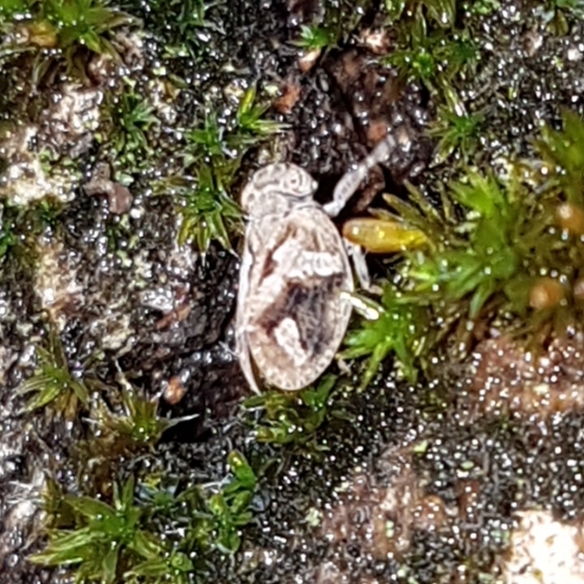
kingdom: Animalia
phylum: Arthropoda
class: Insecta
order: Hemiptera
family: Issidae
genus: Latilica
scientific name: Latilica maculipes
